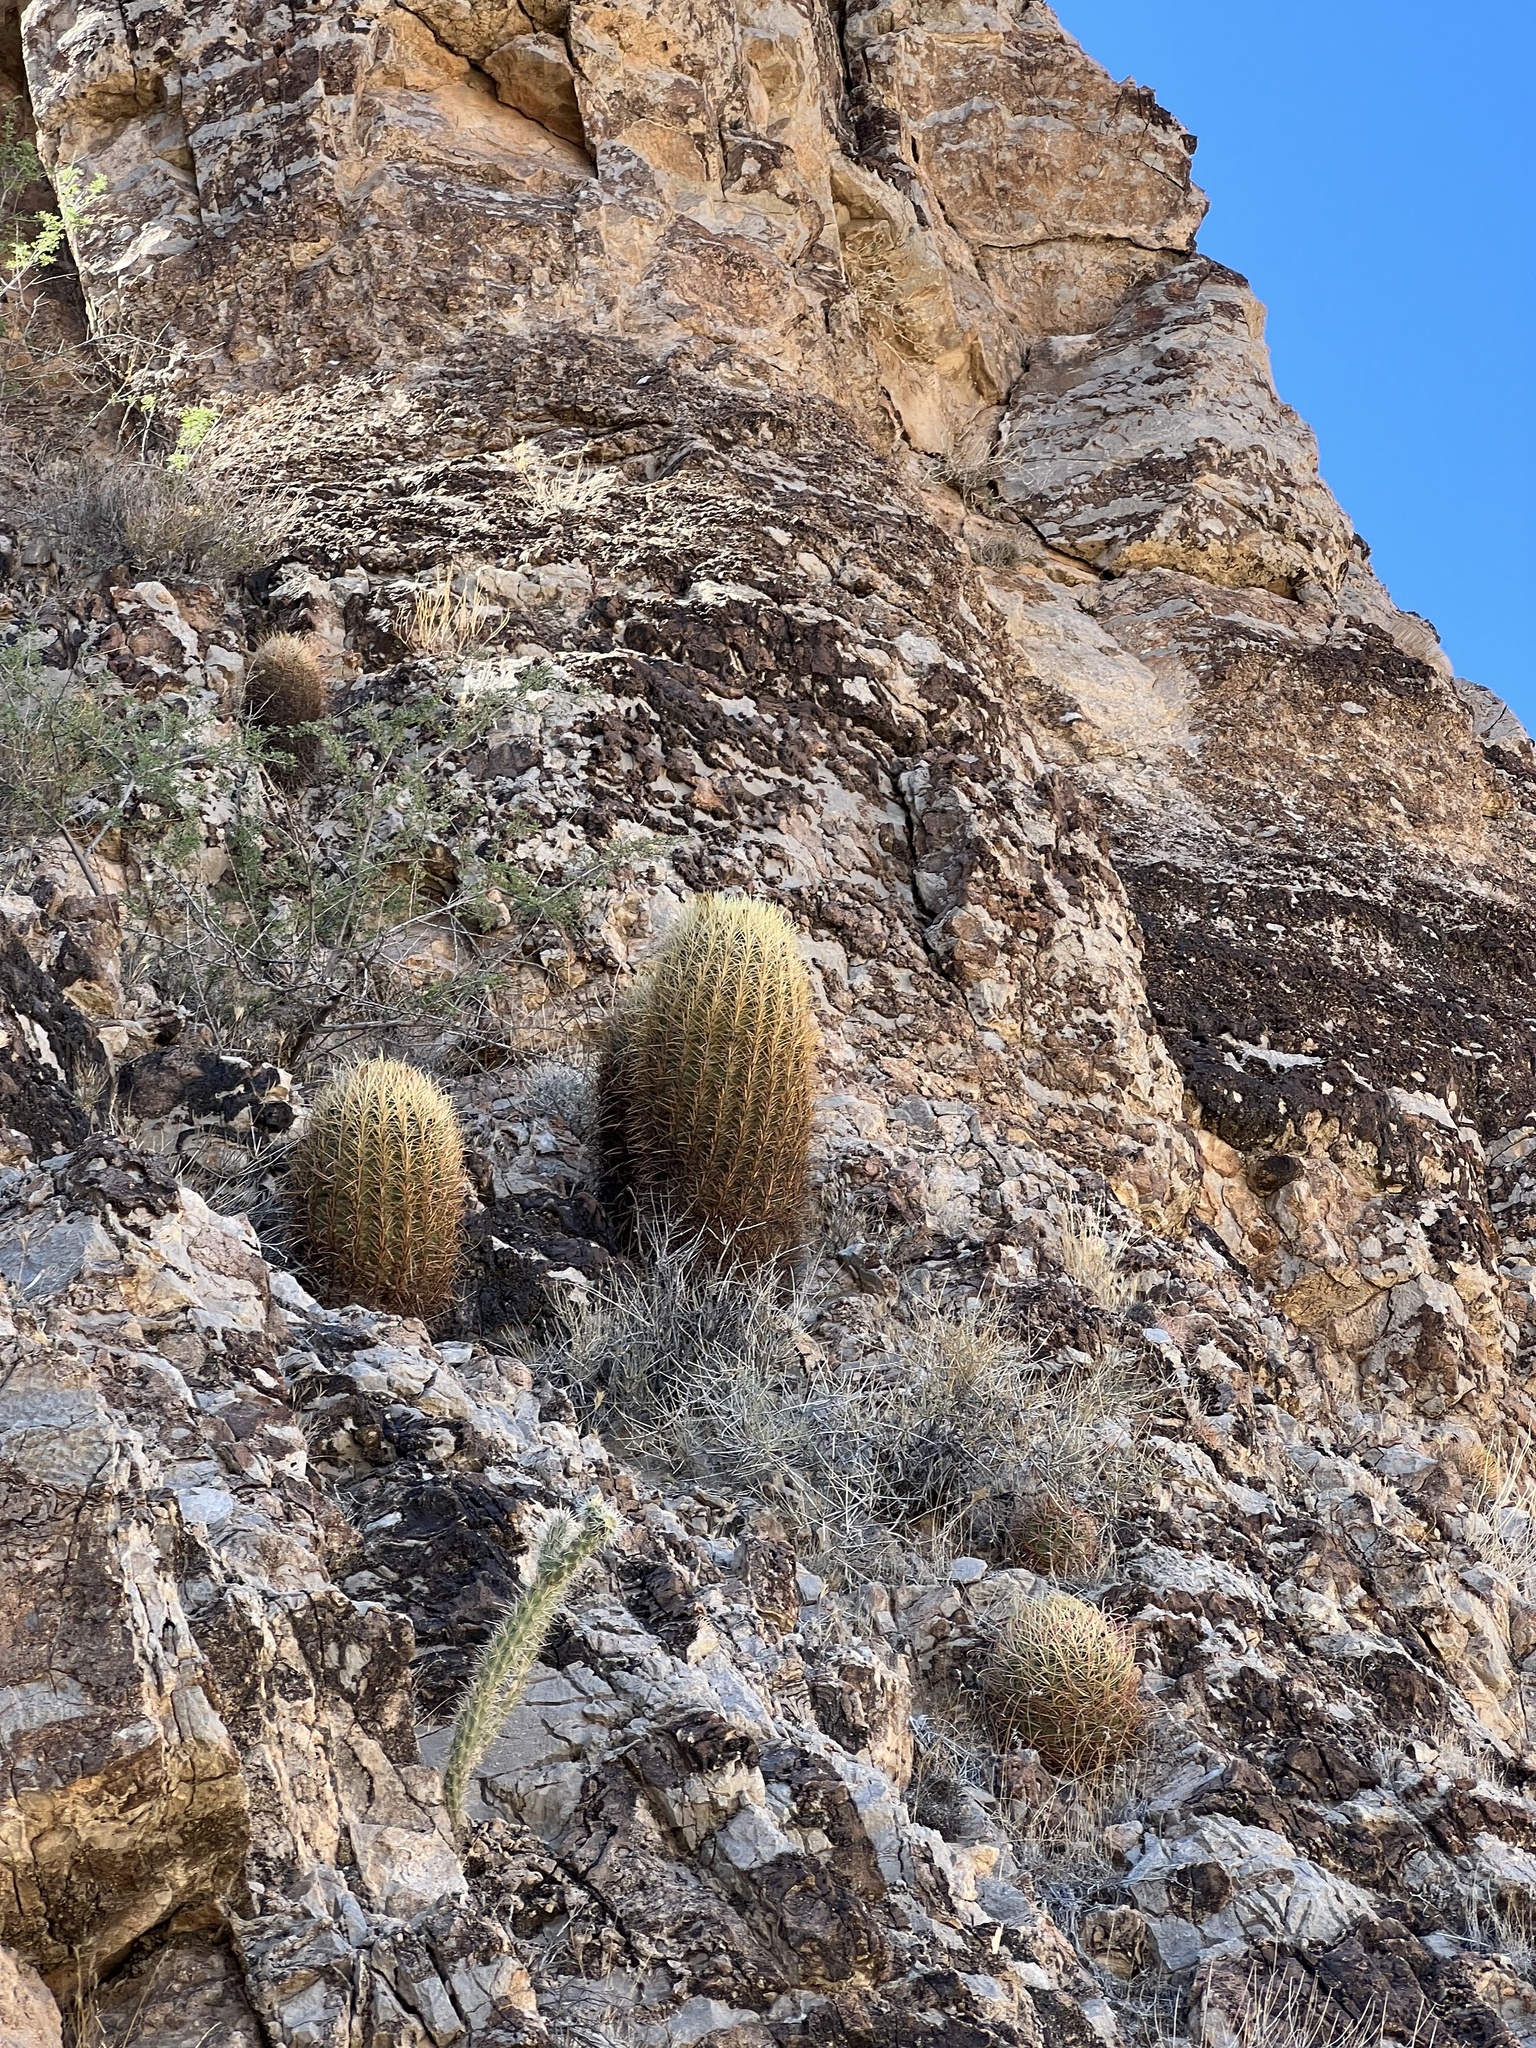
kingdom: Plantae
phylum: Tracheophyta
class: Magnoliopsida
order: Caryophyllales
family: Cactaceae
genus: Ferocactus
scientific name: Ferocactus cylindraceus
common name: California barrel cactus
